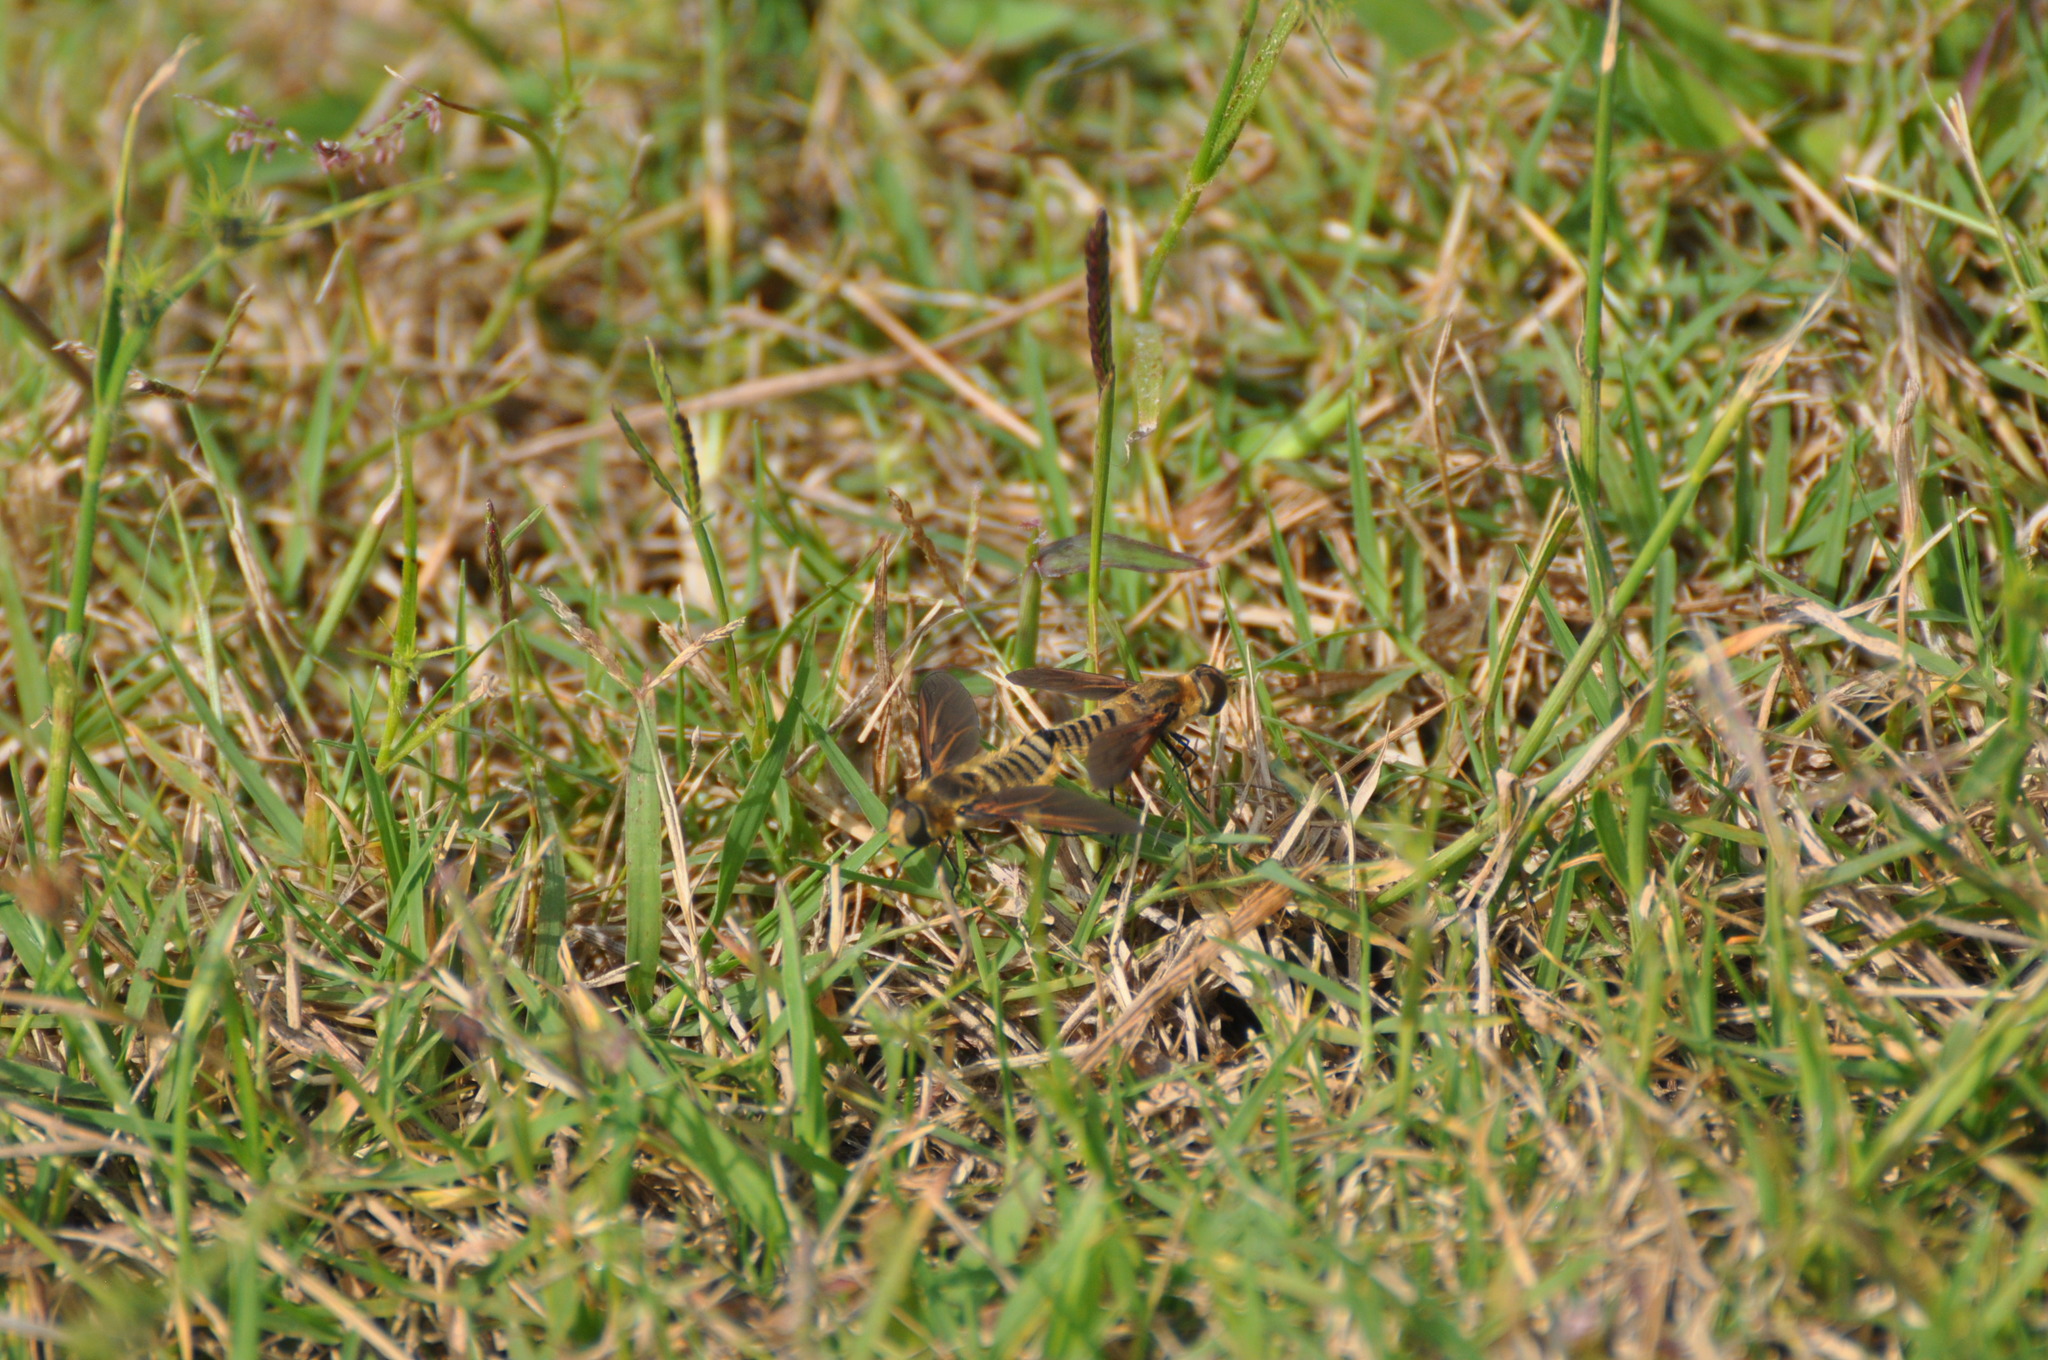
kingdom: Animalia
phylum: Arthropoda
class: Insecta
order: Diptera
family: Bombyliidae
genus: Poecilanthrax
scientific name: Poecilanthrax lucifer
